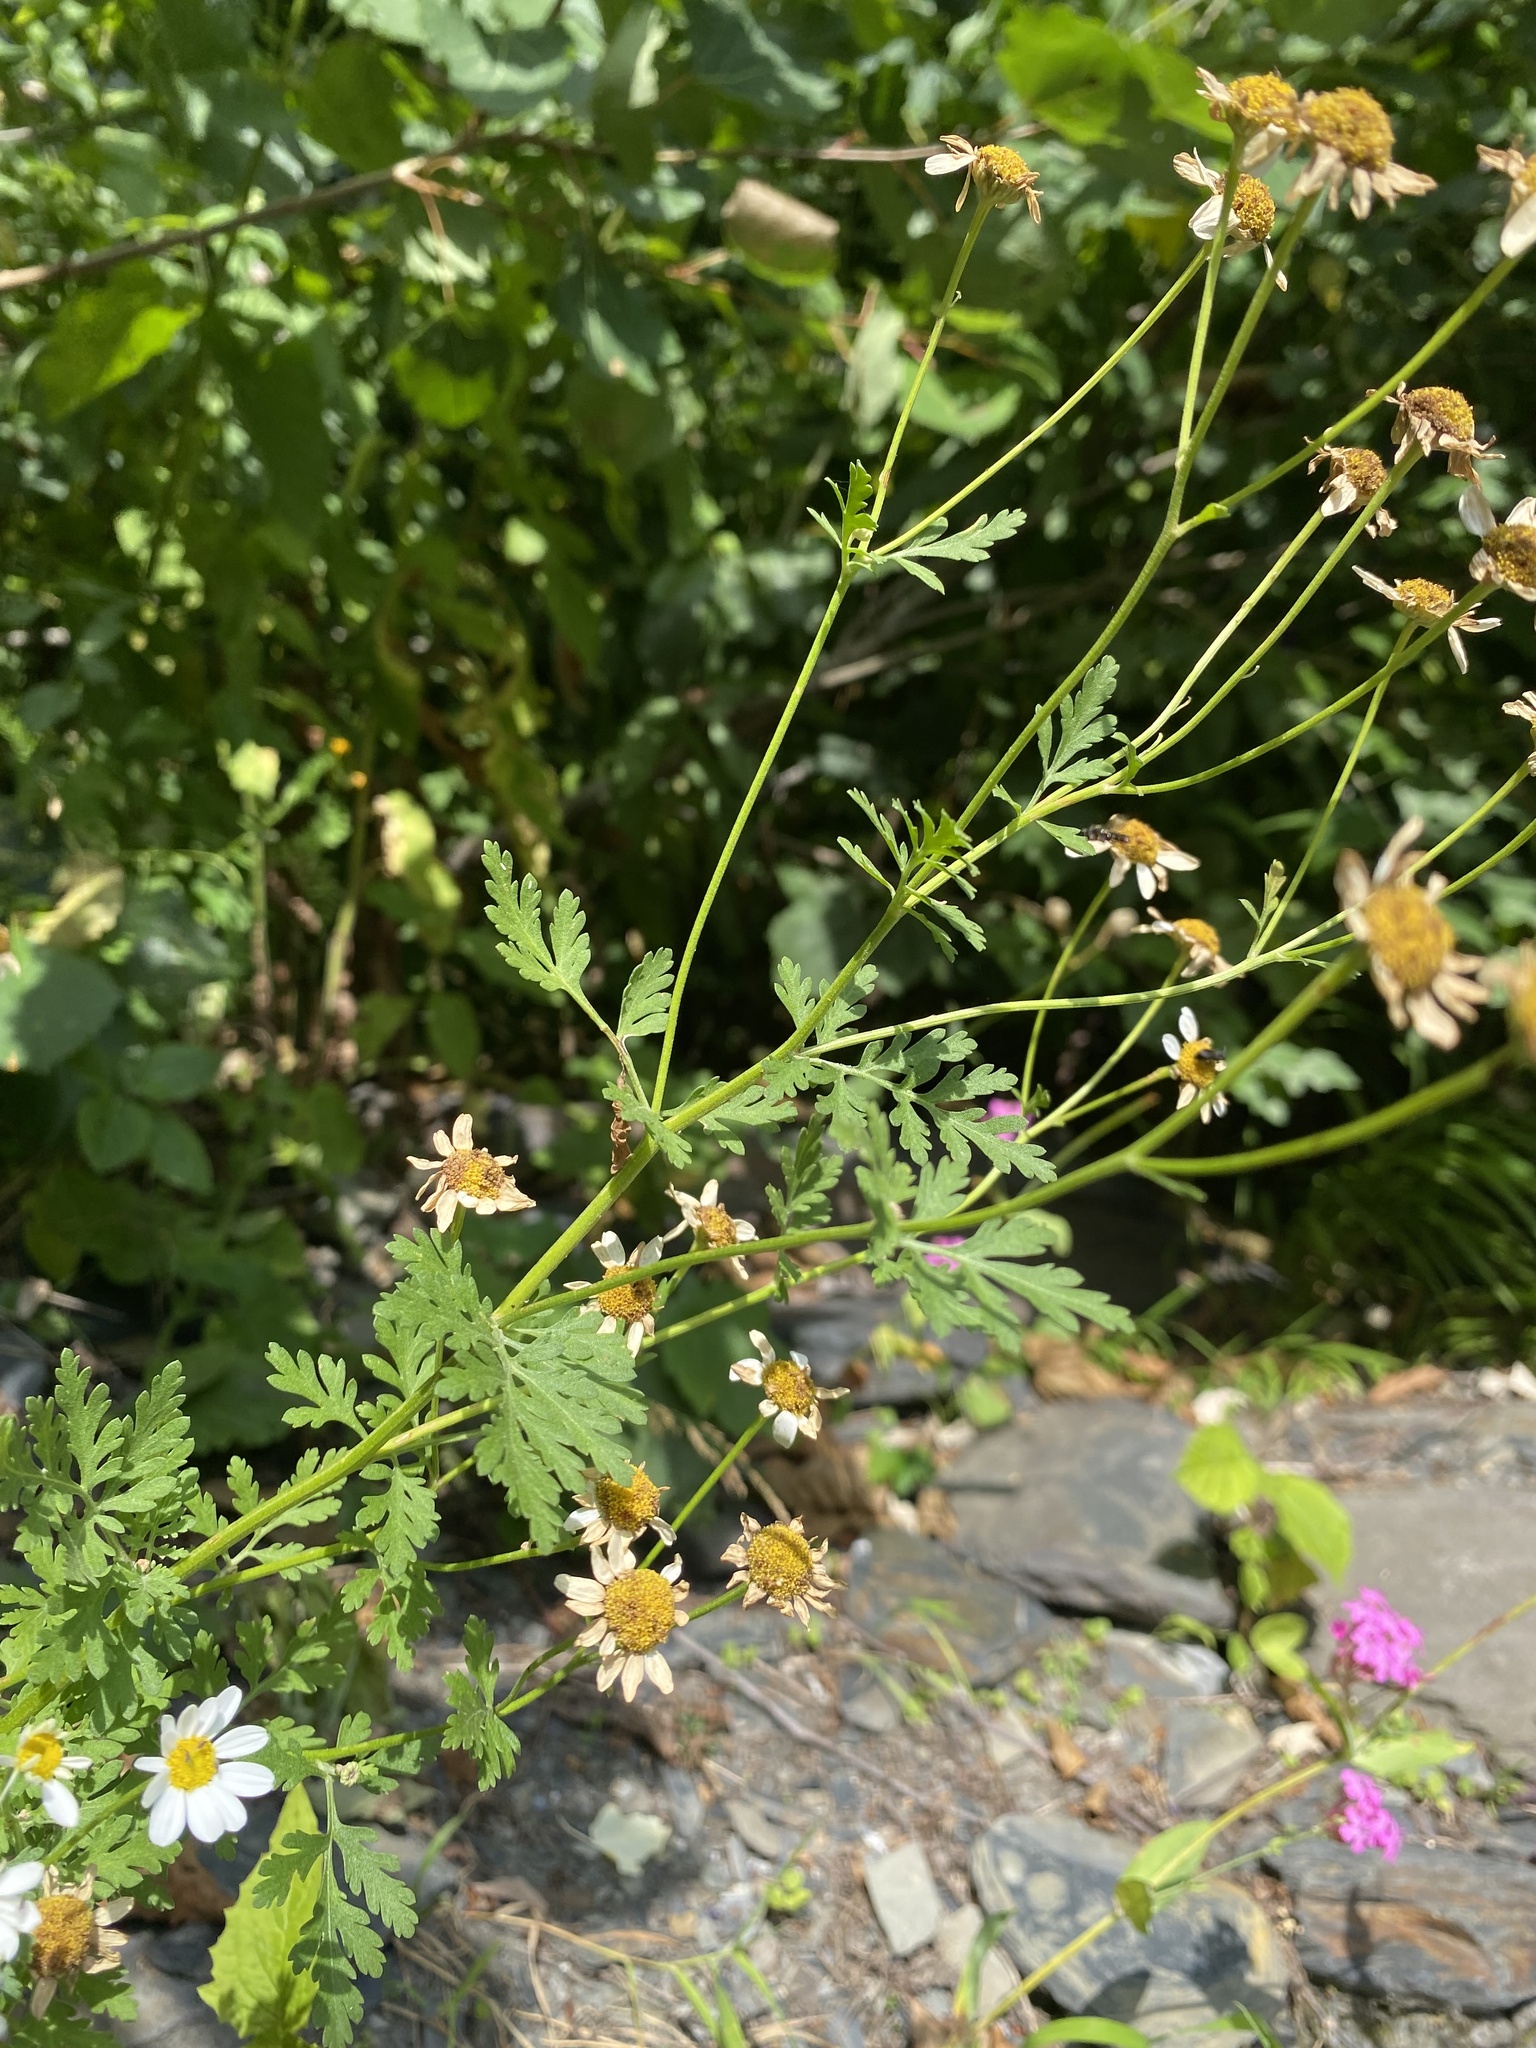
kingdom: Plantae
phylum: Tracheophyta
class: Magnoliopsida
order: Asterales
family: Asteraceae
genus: Tanacetum
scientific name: Tanacetum partheniifolium
